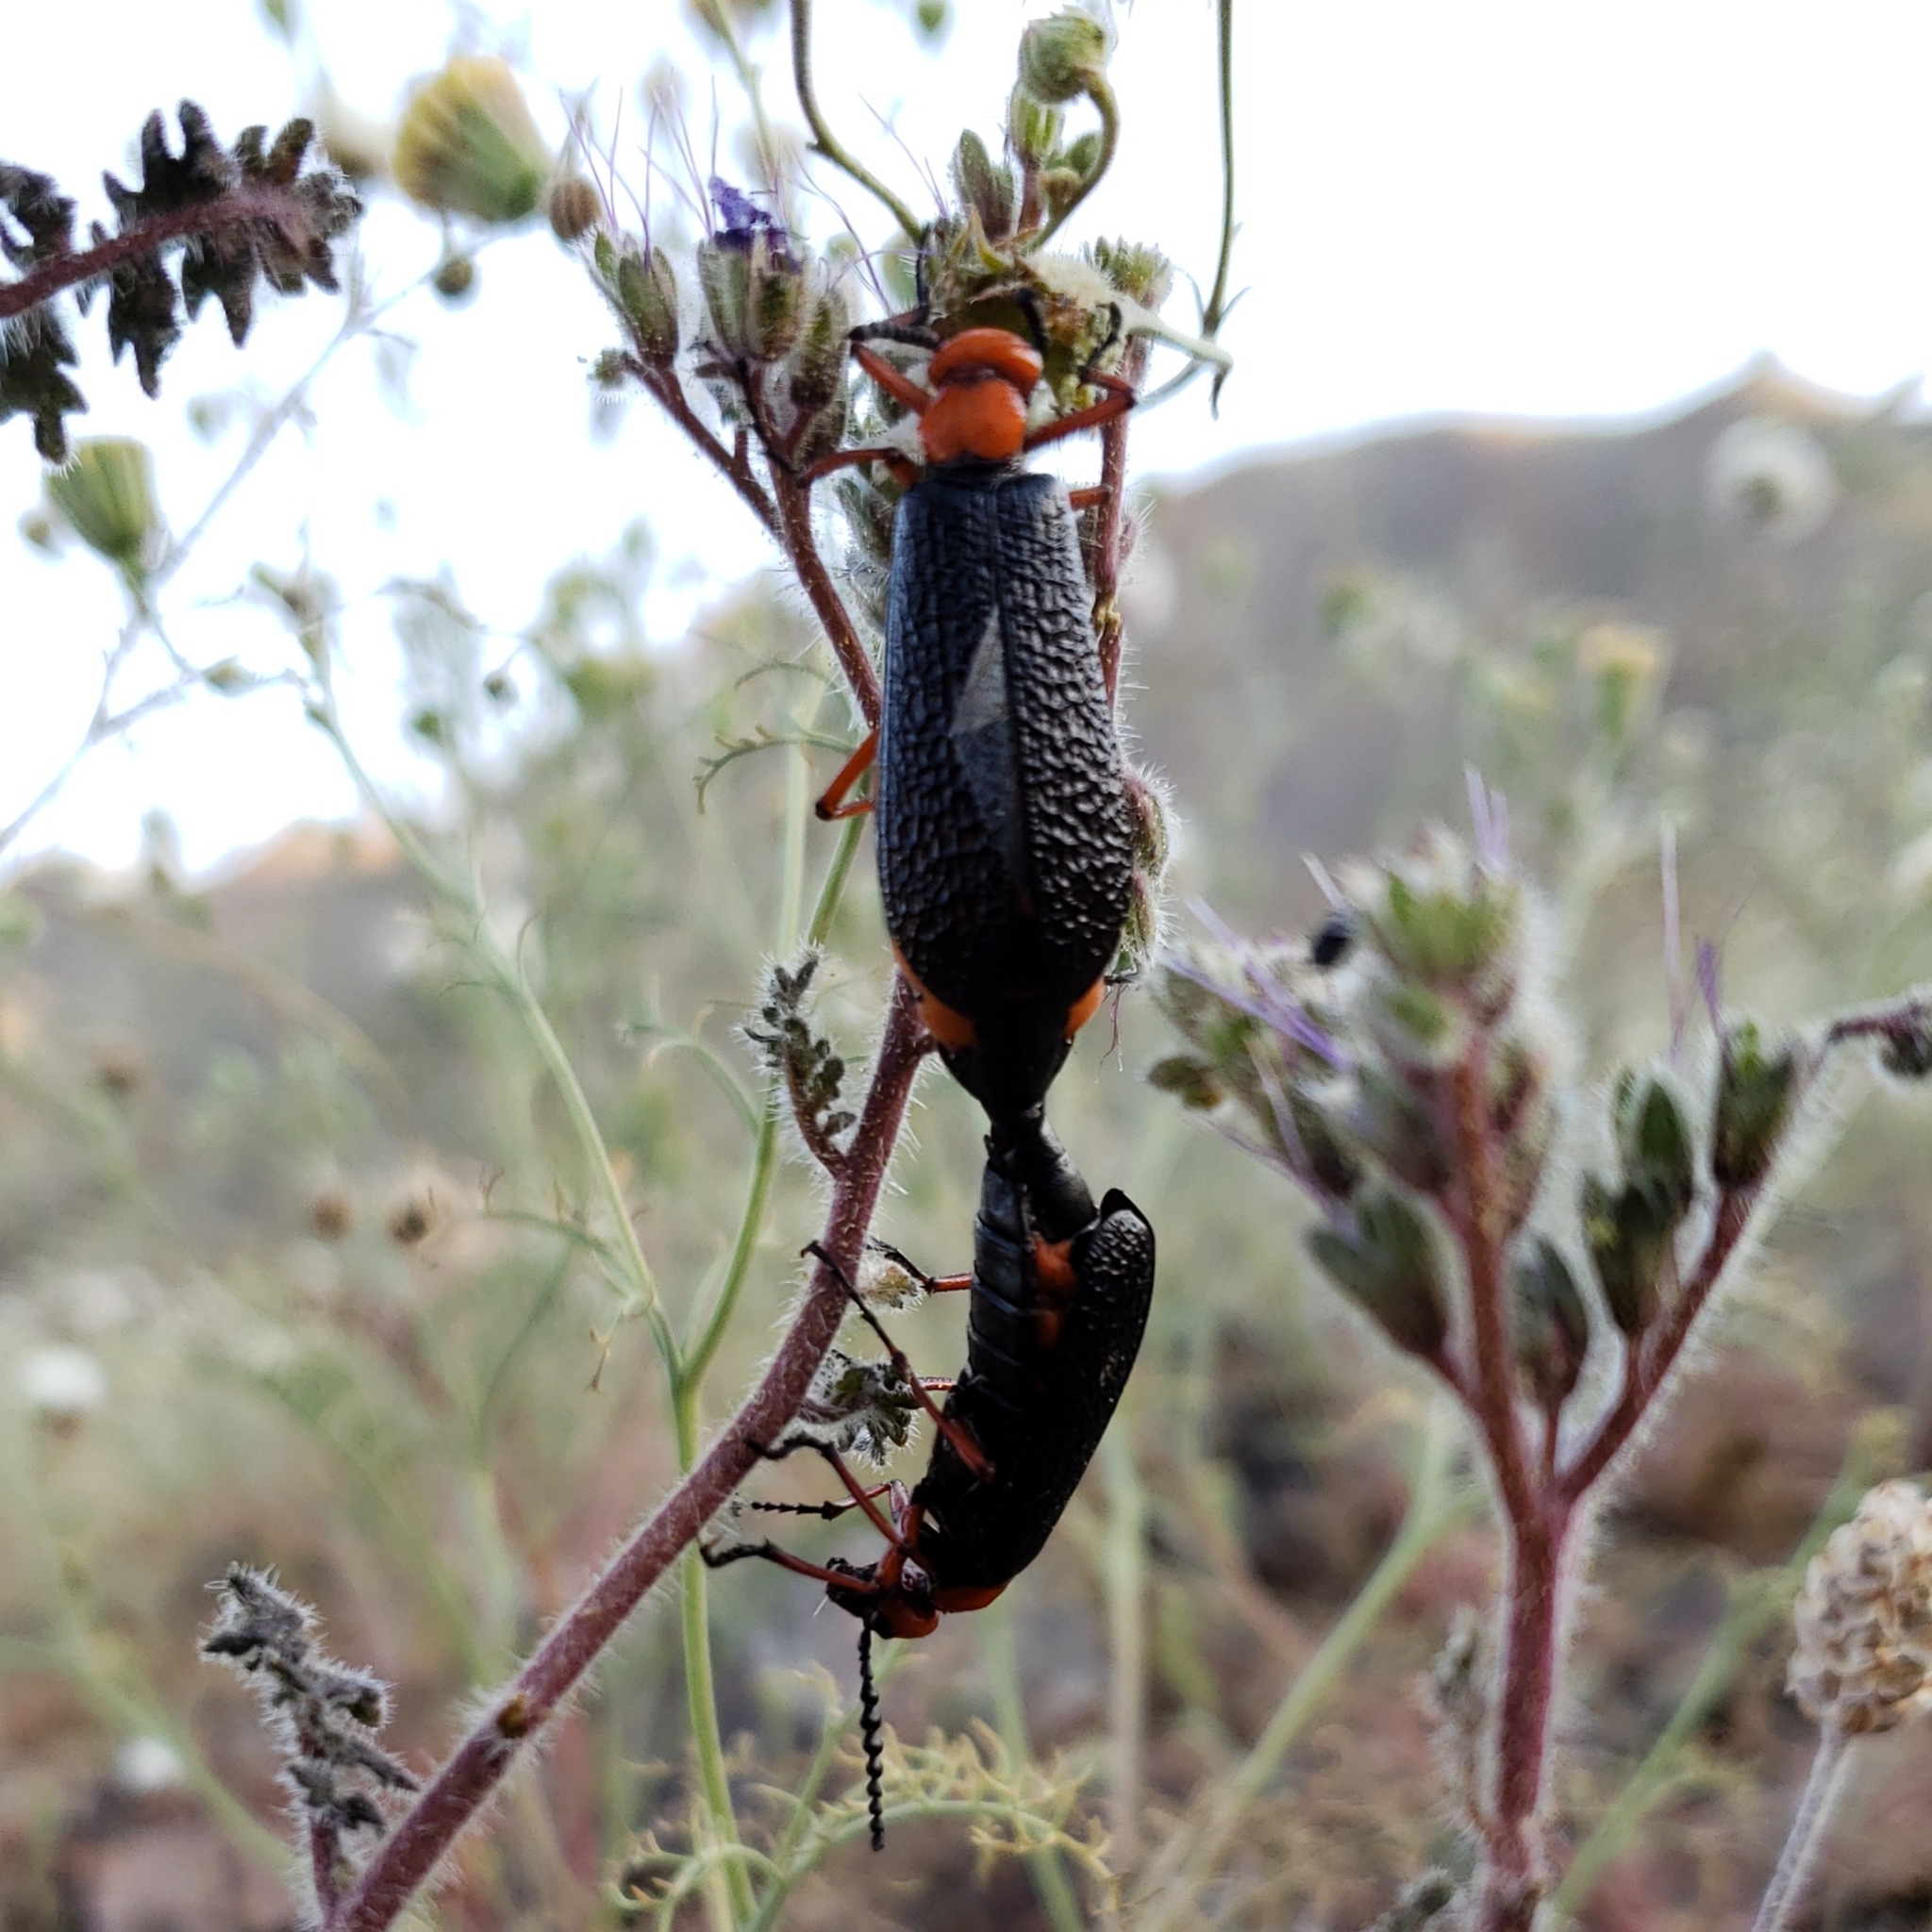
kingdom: Animalia
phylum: Arthropoda
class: Insecta
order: Coleoptera
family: Meloidae
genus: Lytta
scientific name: Lytta magister
